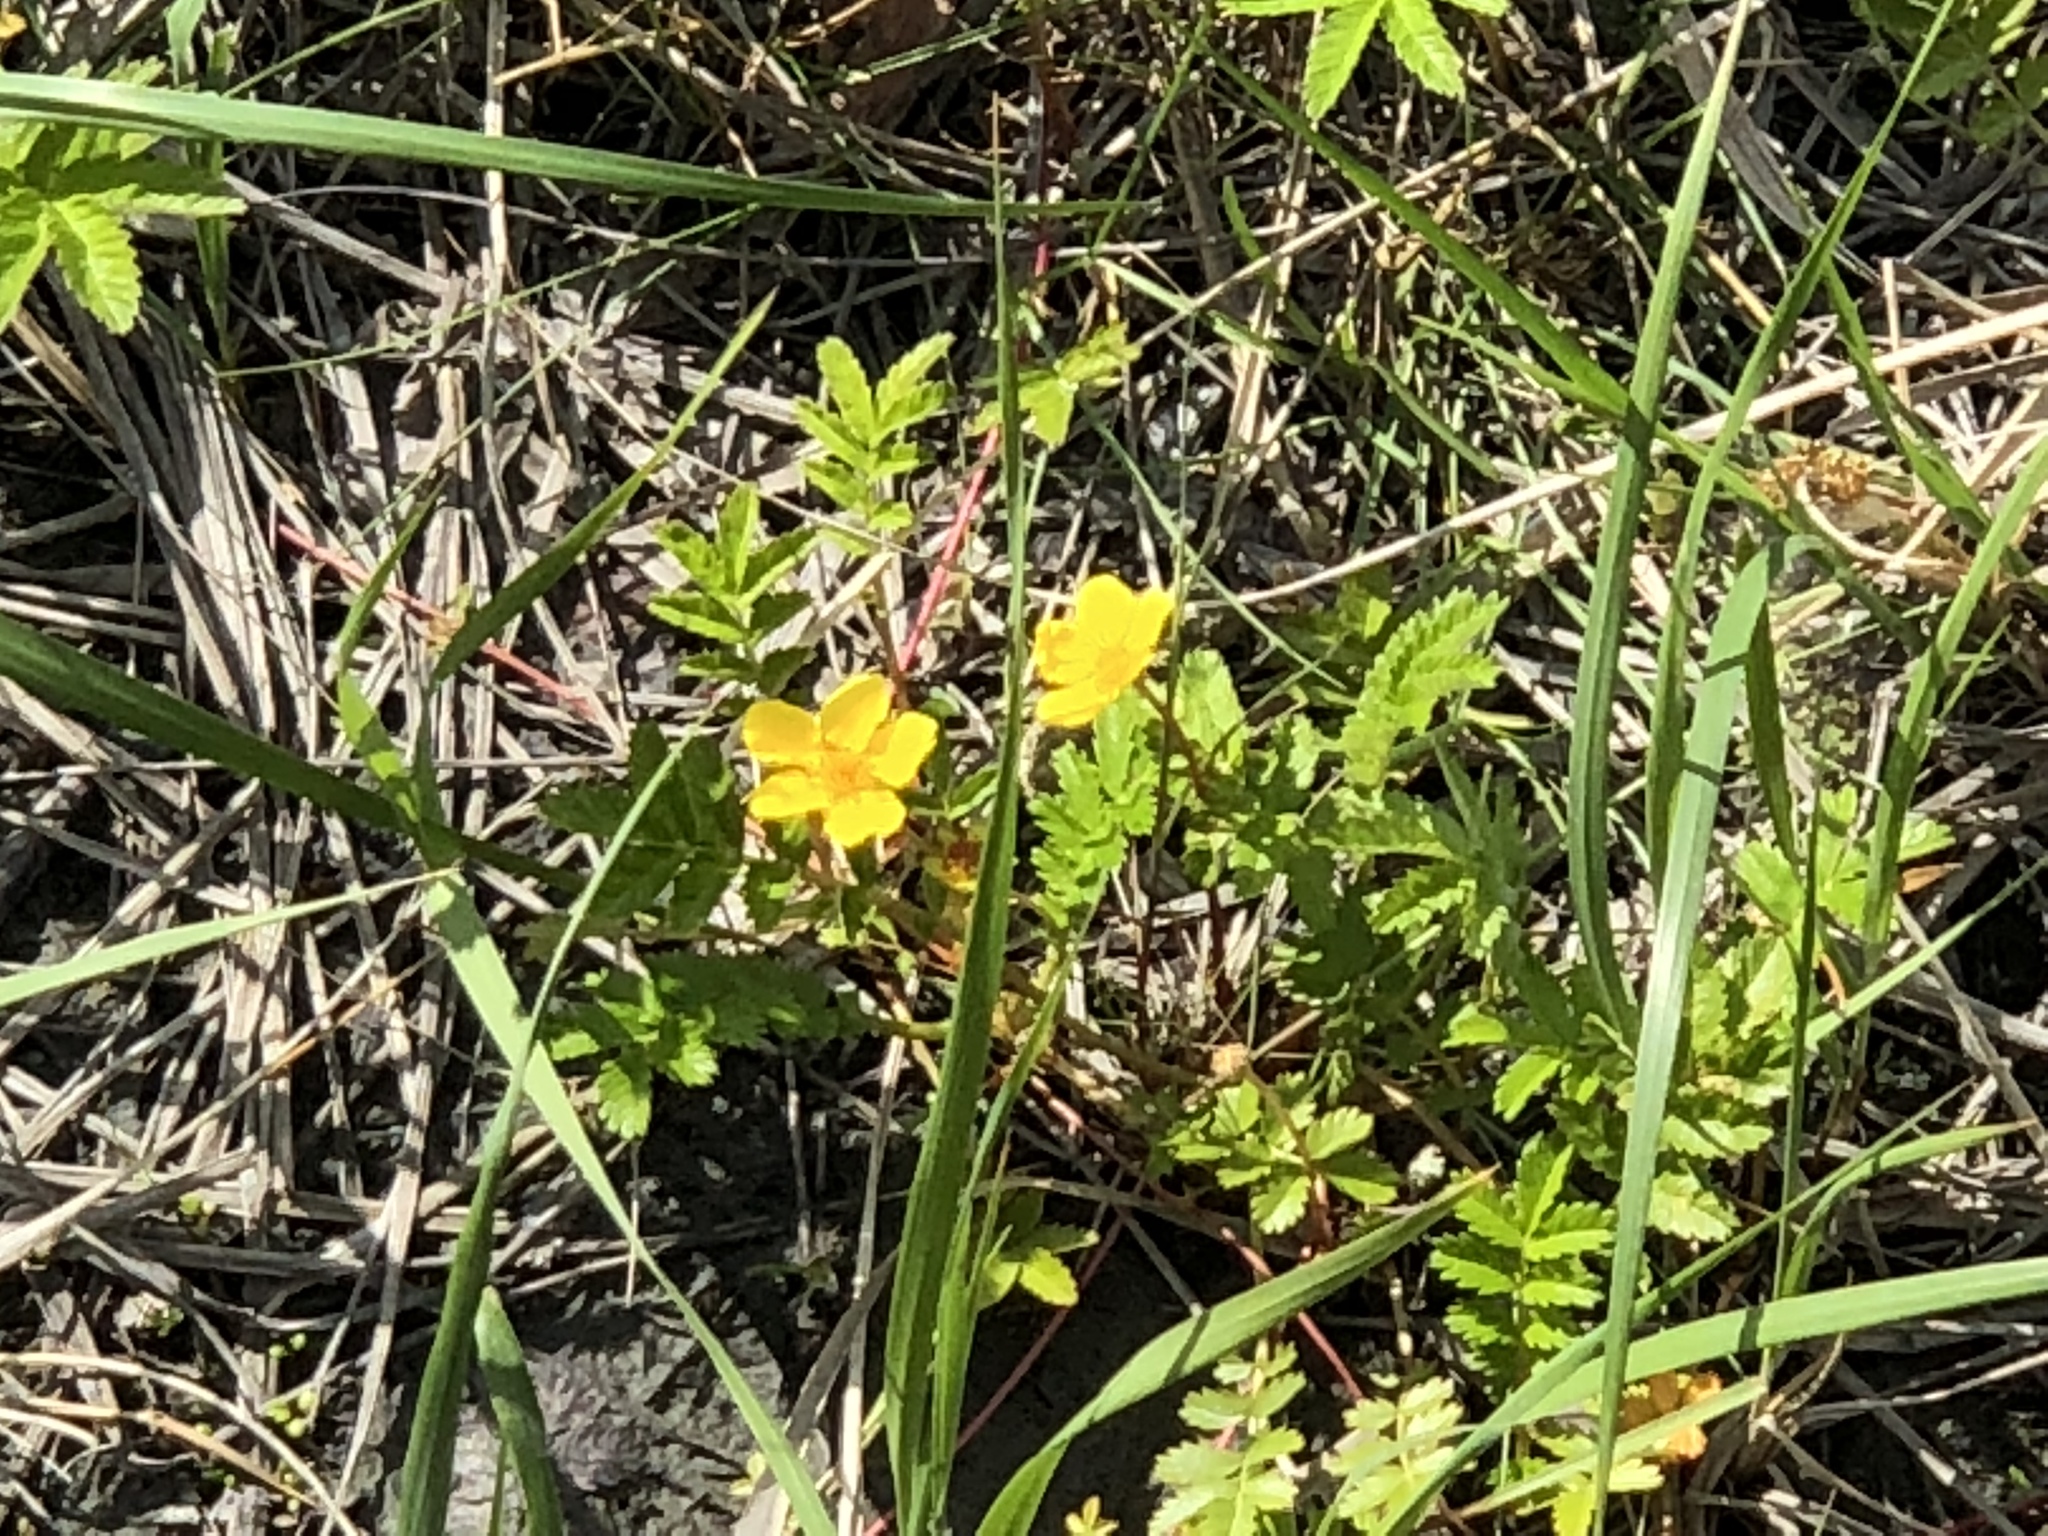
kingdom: Plantae
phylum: Tracheophyta
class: Magnoliopsida
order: Rosales
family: Rosaceae
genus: Argentina
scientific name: Argentina anserina
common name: Common silverweed
